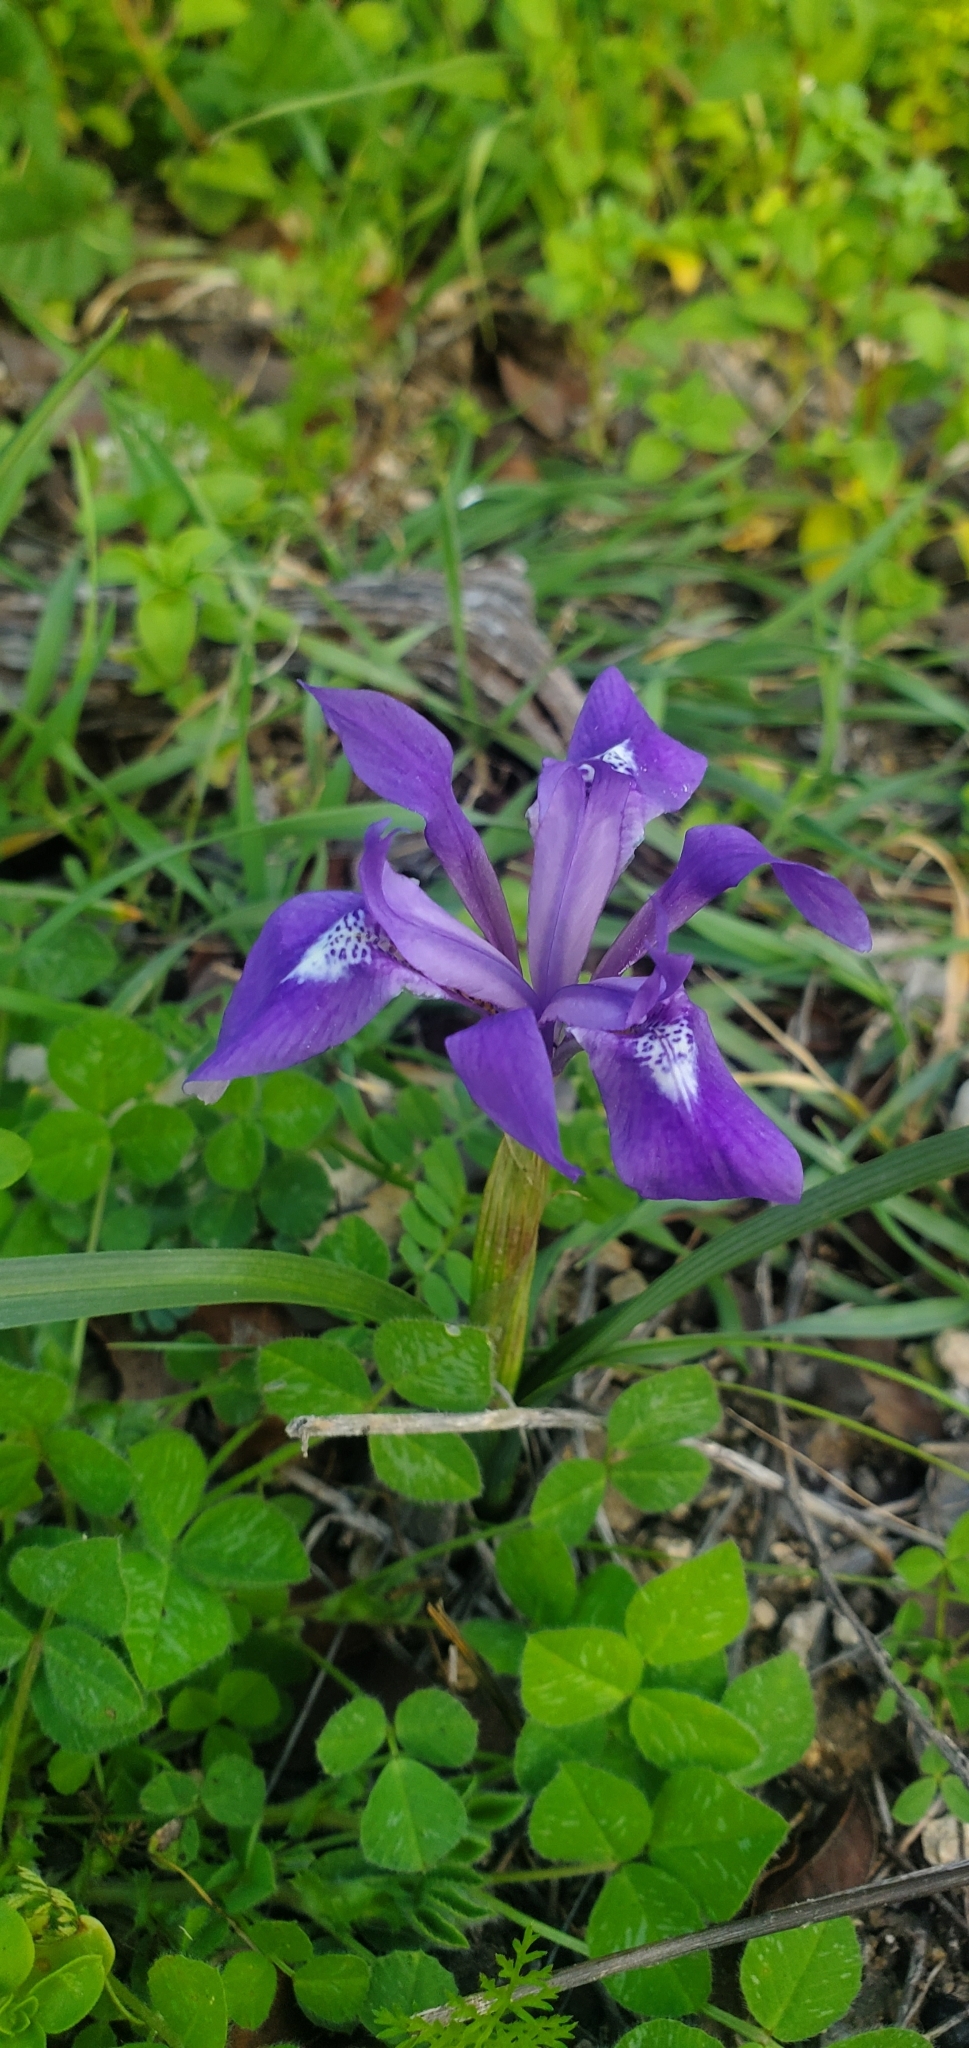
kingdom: Plantae
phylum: Tracheophyta
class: Liliopsida
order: Asparagales
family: Iridaceae
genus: Moraea
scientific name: Moraea sisyrinchium
